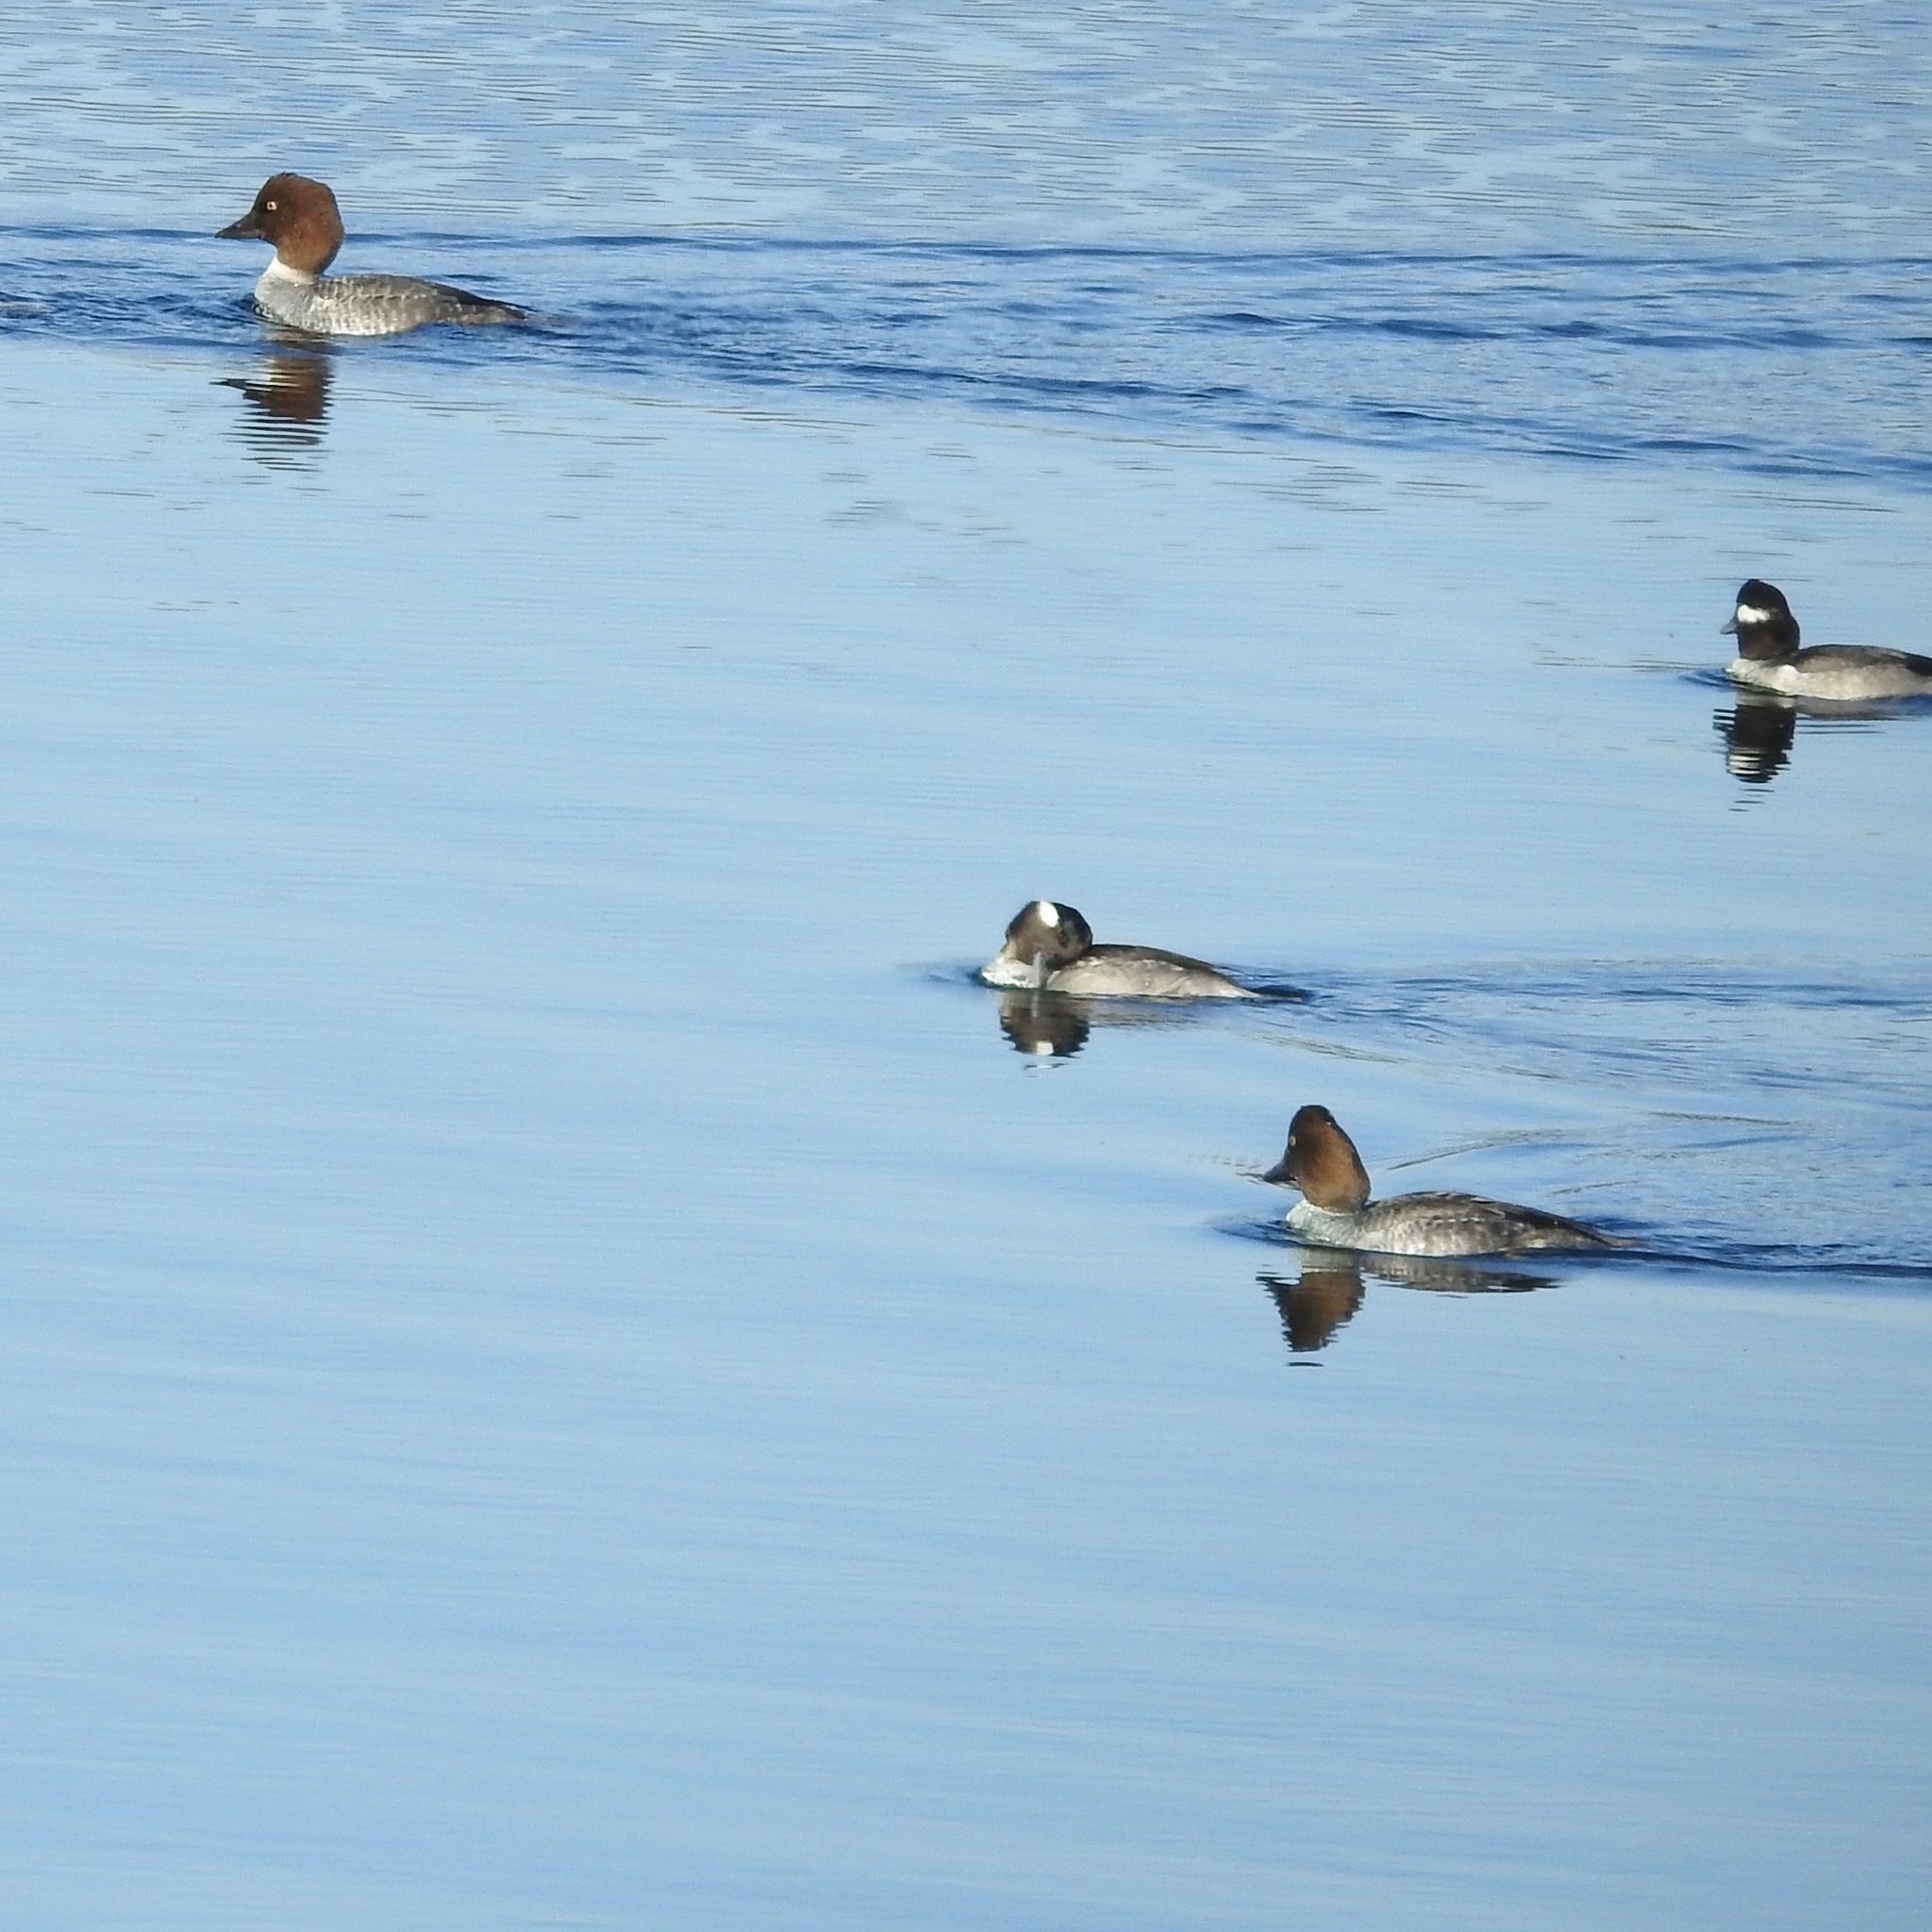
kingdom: Animalia
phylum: Chordata
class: Aves
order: Anseriformes
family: Anatidae
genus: Bucephala
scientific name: Bucephala clangula
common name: Common goldeneye
